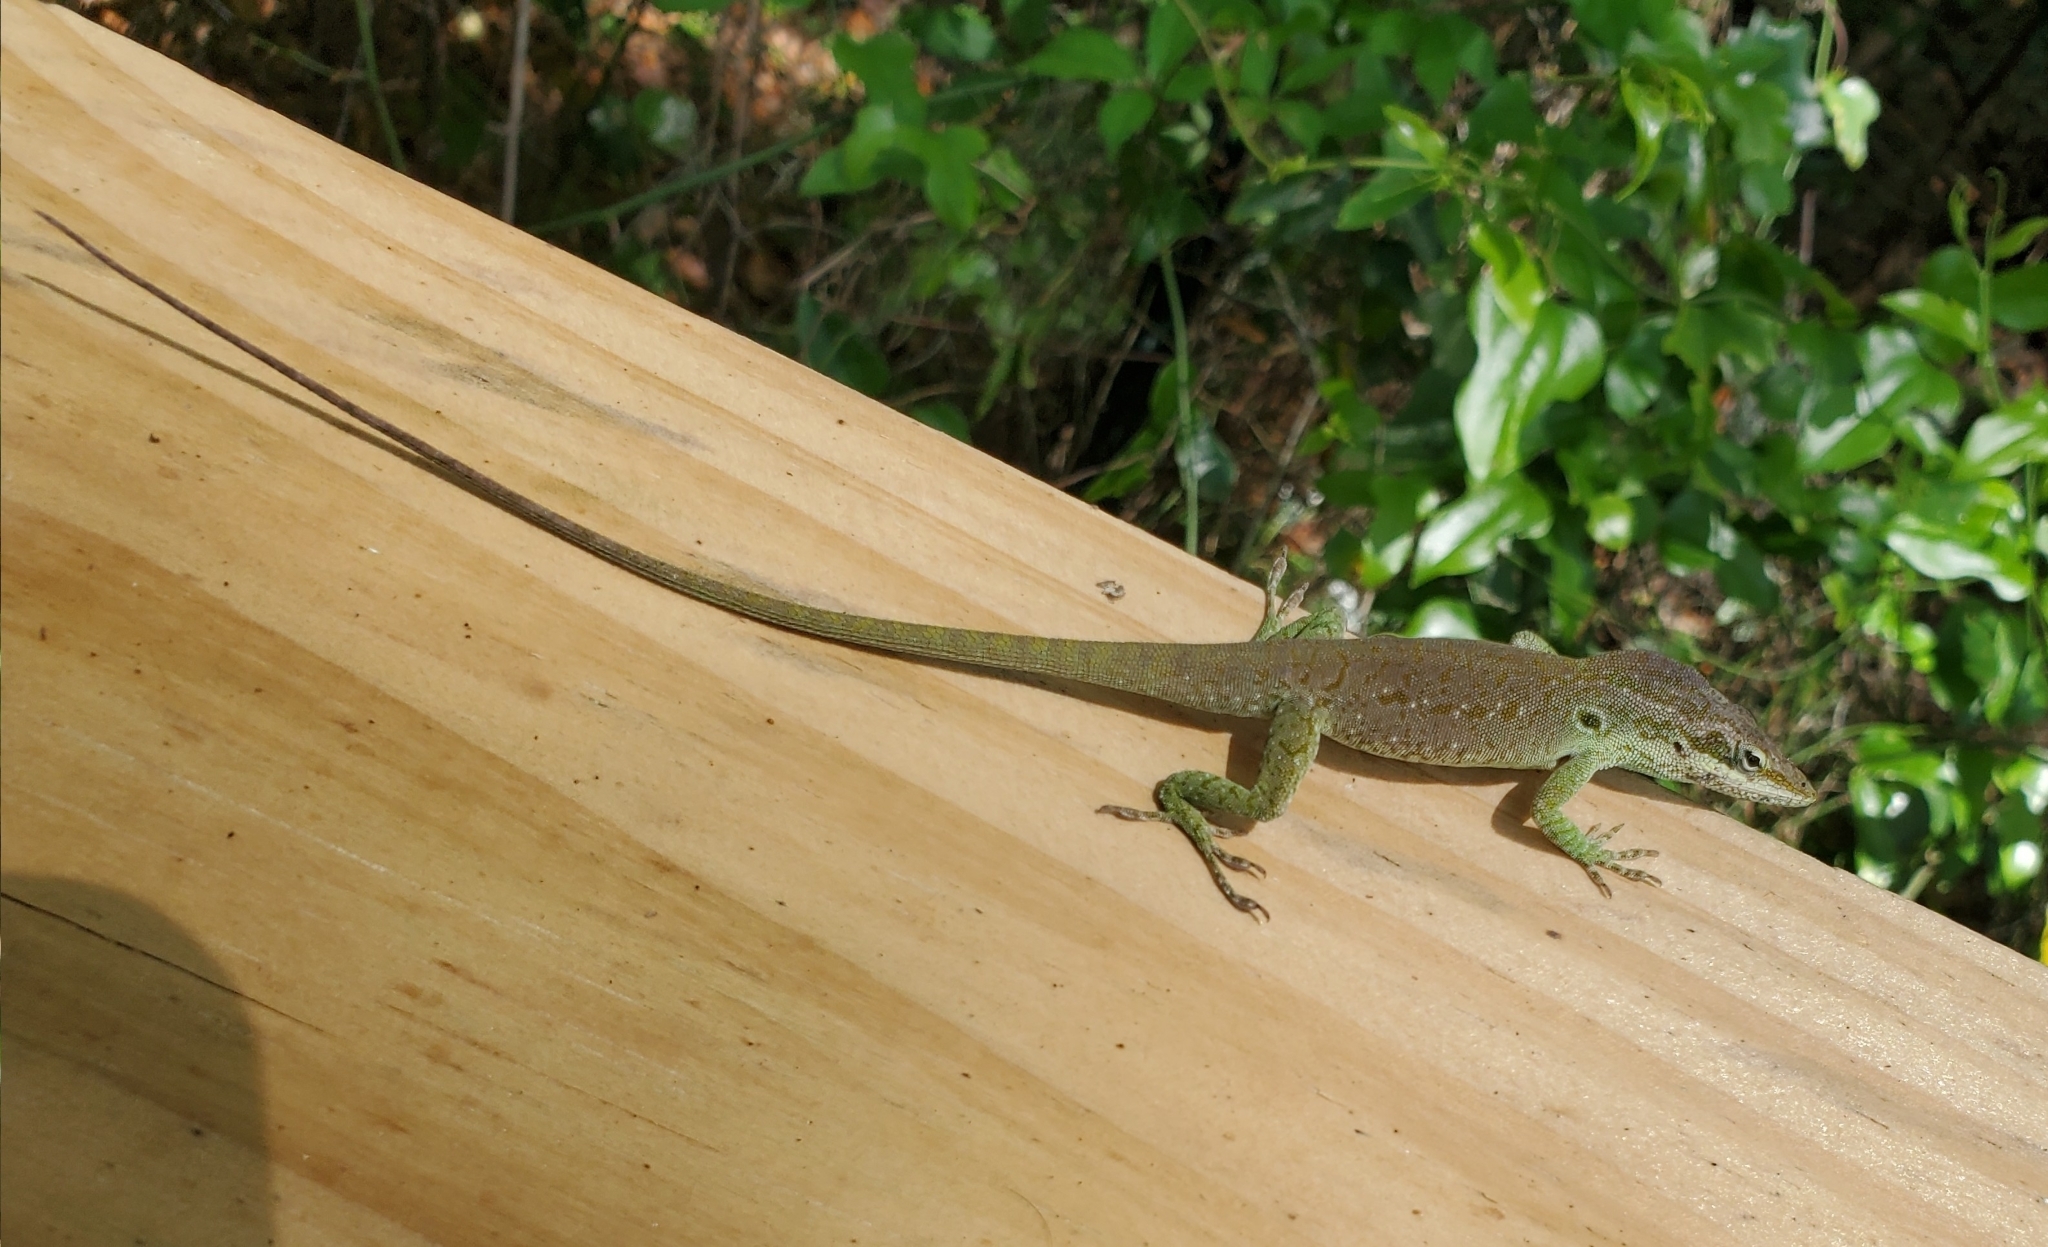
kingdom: Animalia
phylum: Chordata
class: Squamata
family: Dactyloidae
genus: Anolis
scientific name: Anolis carolinensis
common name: Green anole
